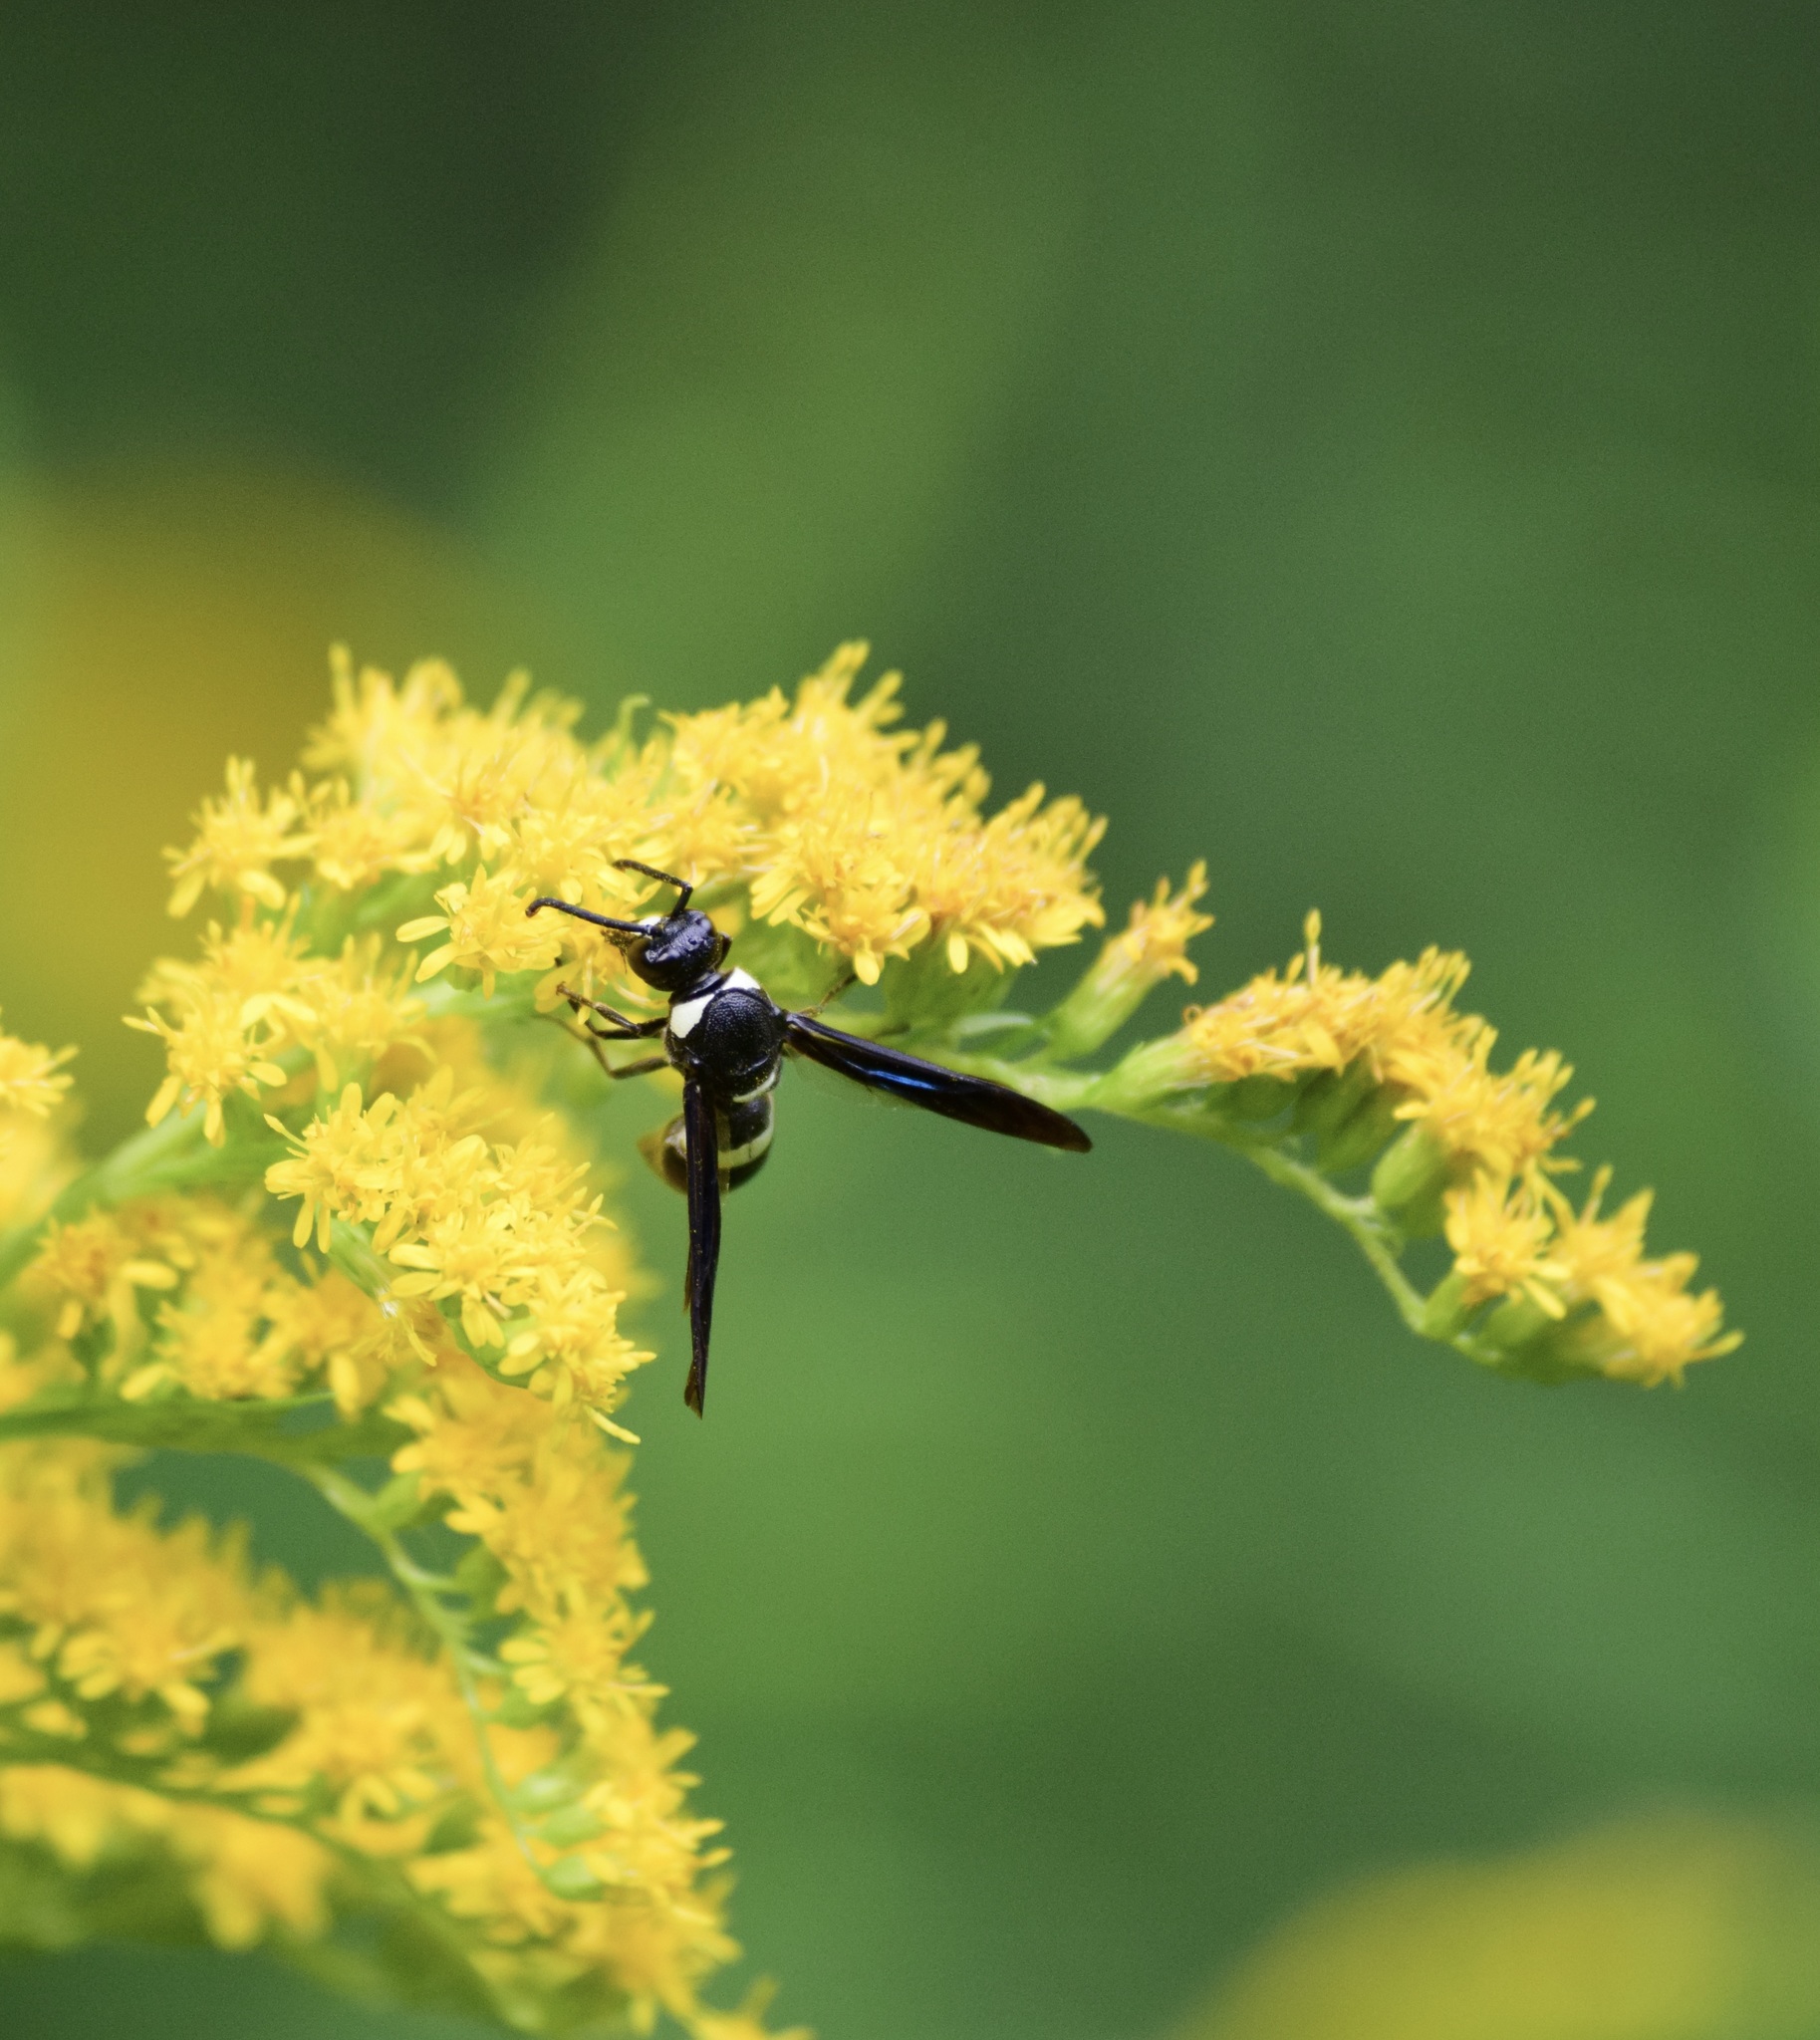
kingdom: Animalia
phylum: Arthropoda
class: Insecta
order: Hymenoptera
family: Eumenidae
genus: Monobia
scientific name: Monobia quadridens
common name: Four-toothed mason wasp
